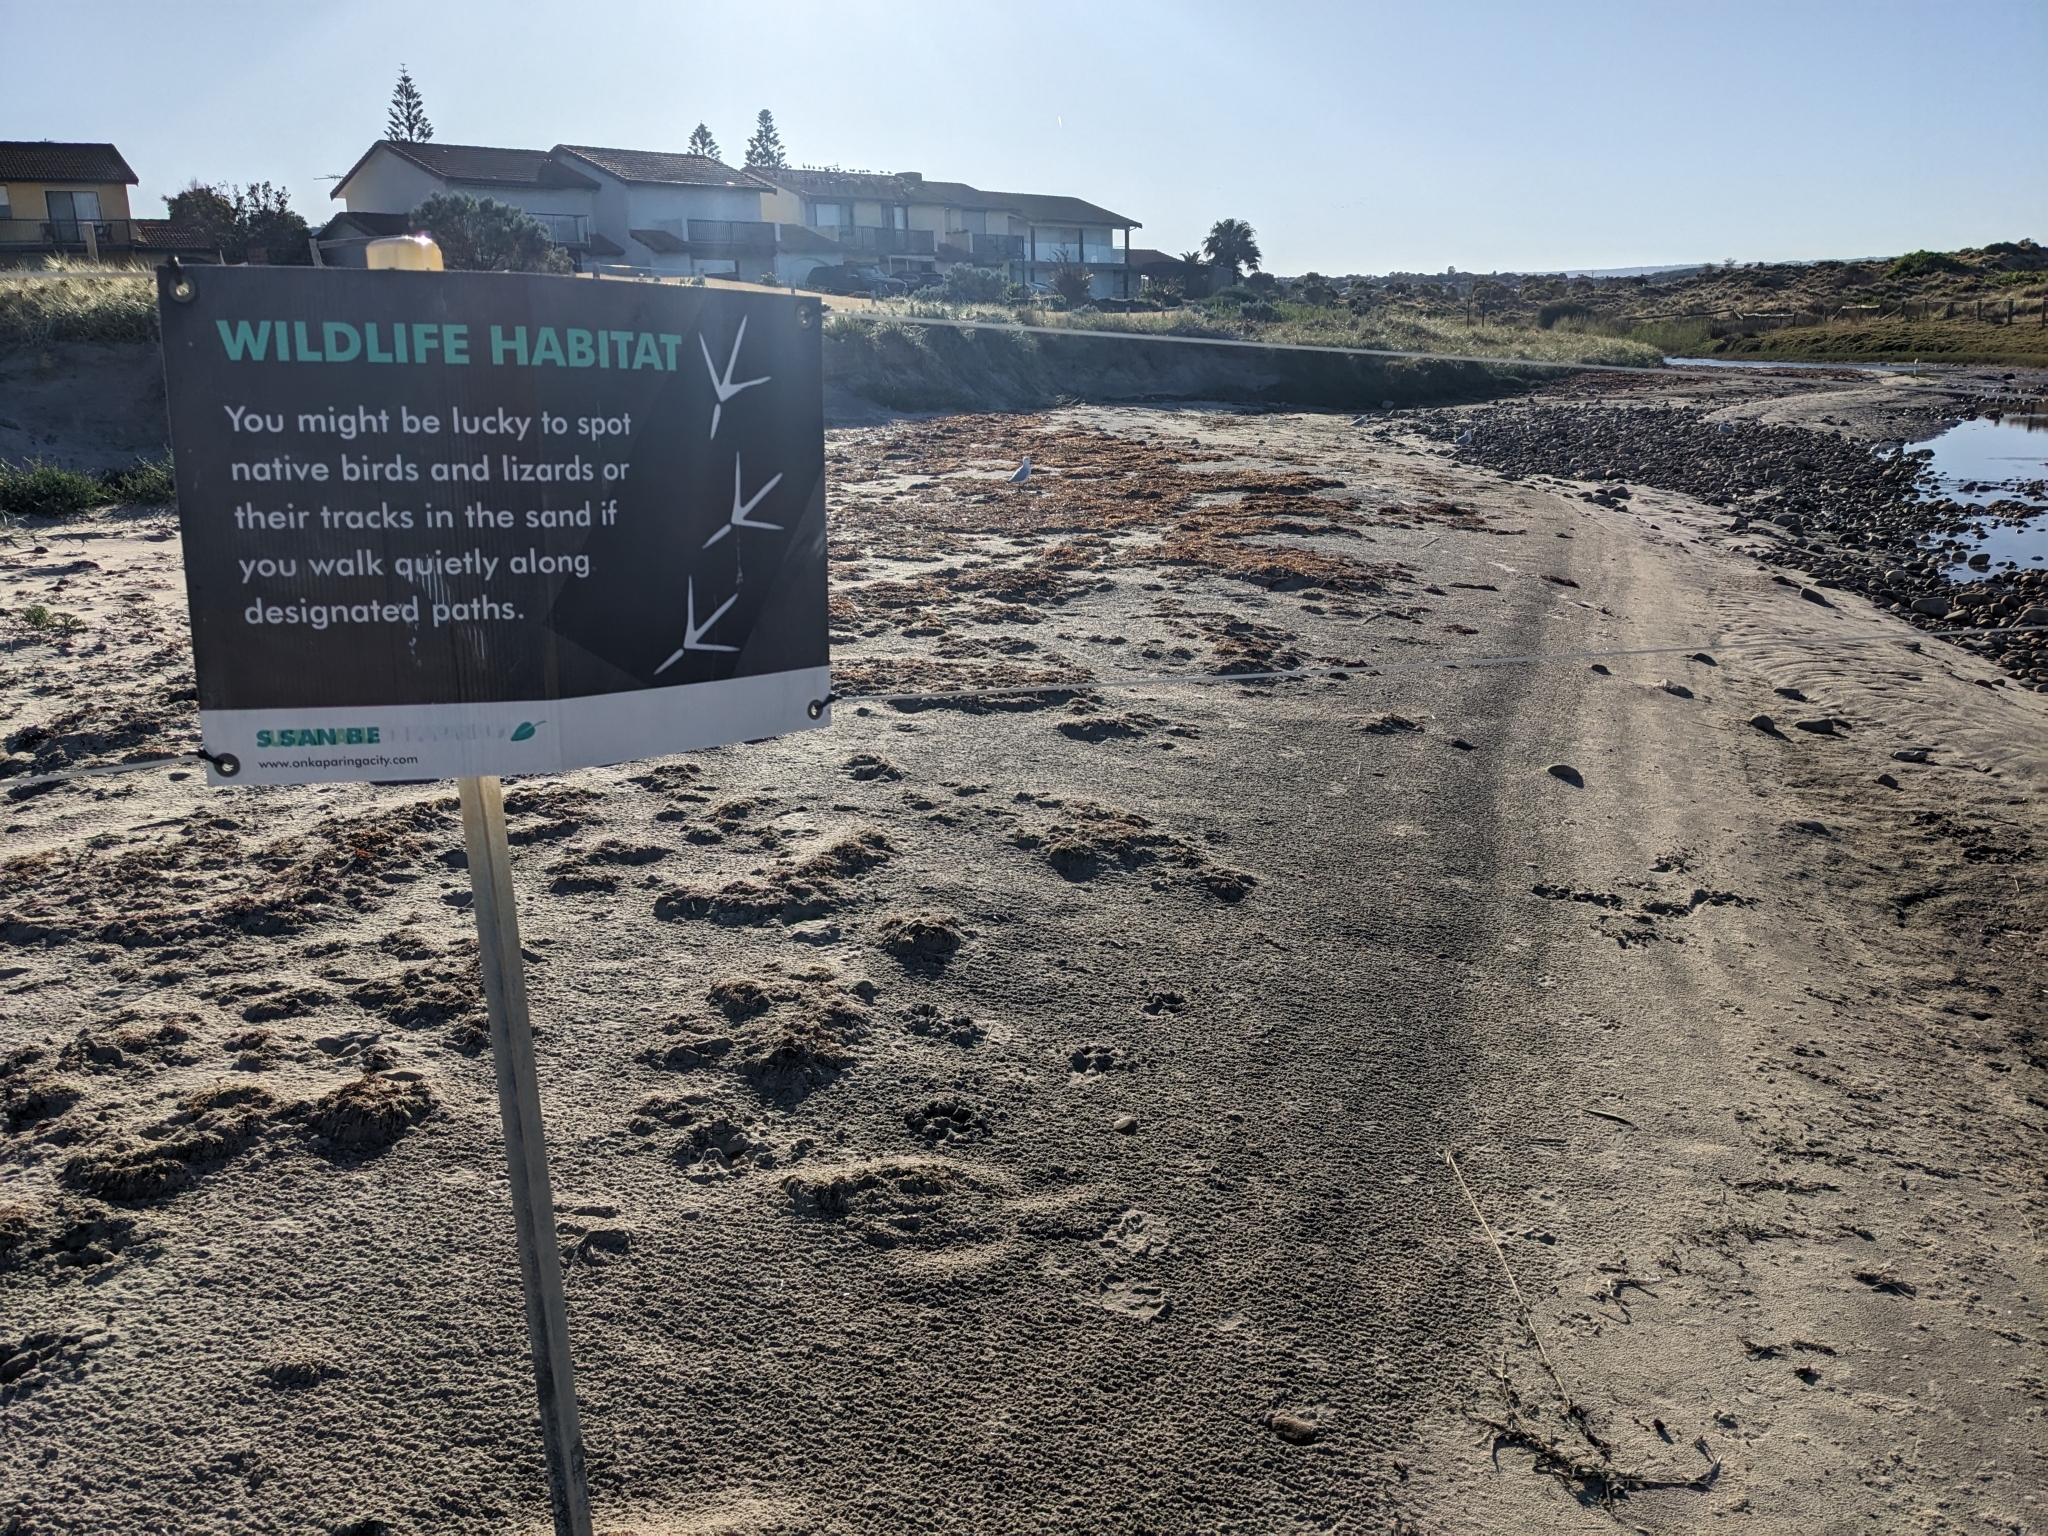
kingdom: Animalia
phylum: Chordata
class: Aves
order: Charadriiformes
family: Laridae
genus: Chroicocephalus
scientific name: Chroicocephalus novaehollandiae
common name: Silver gull
